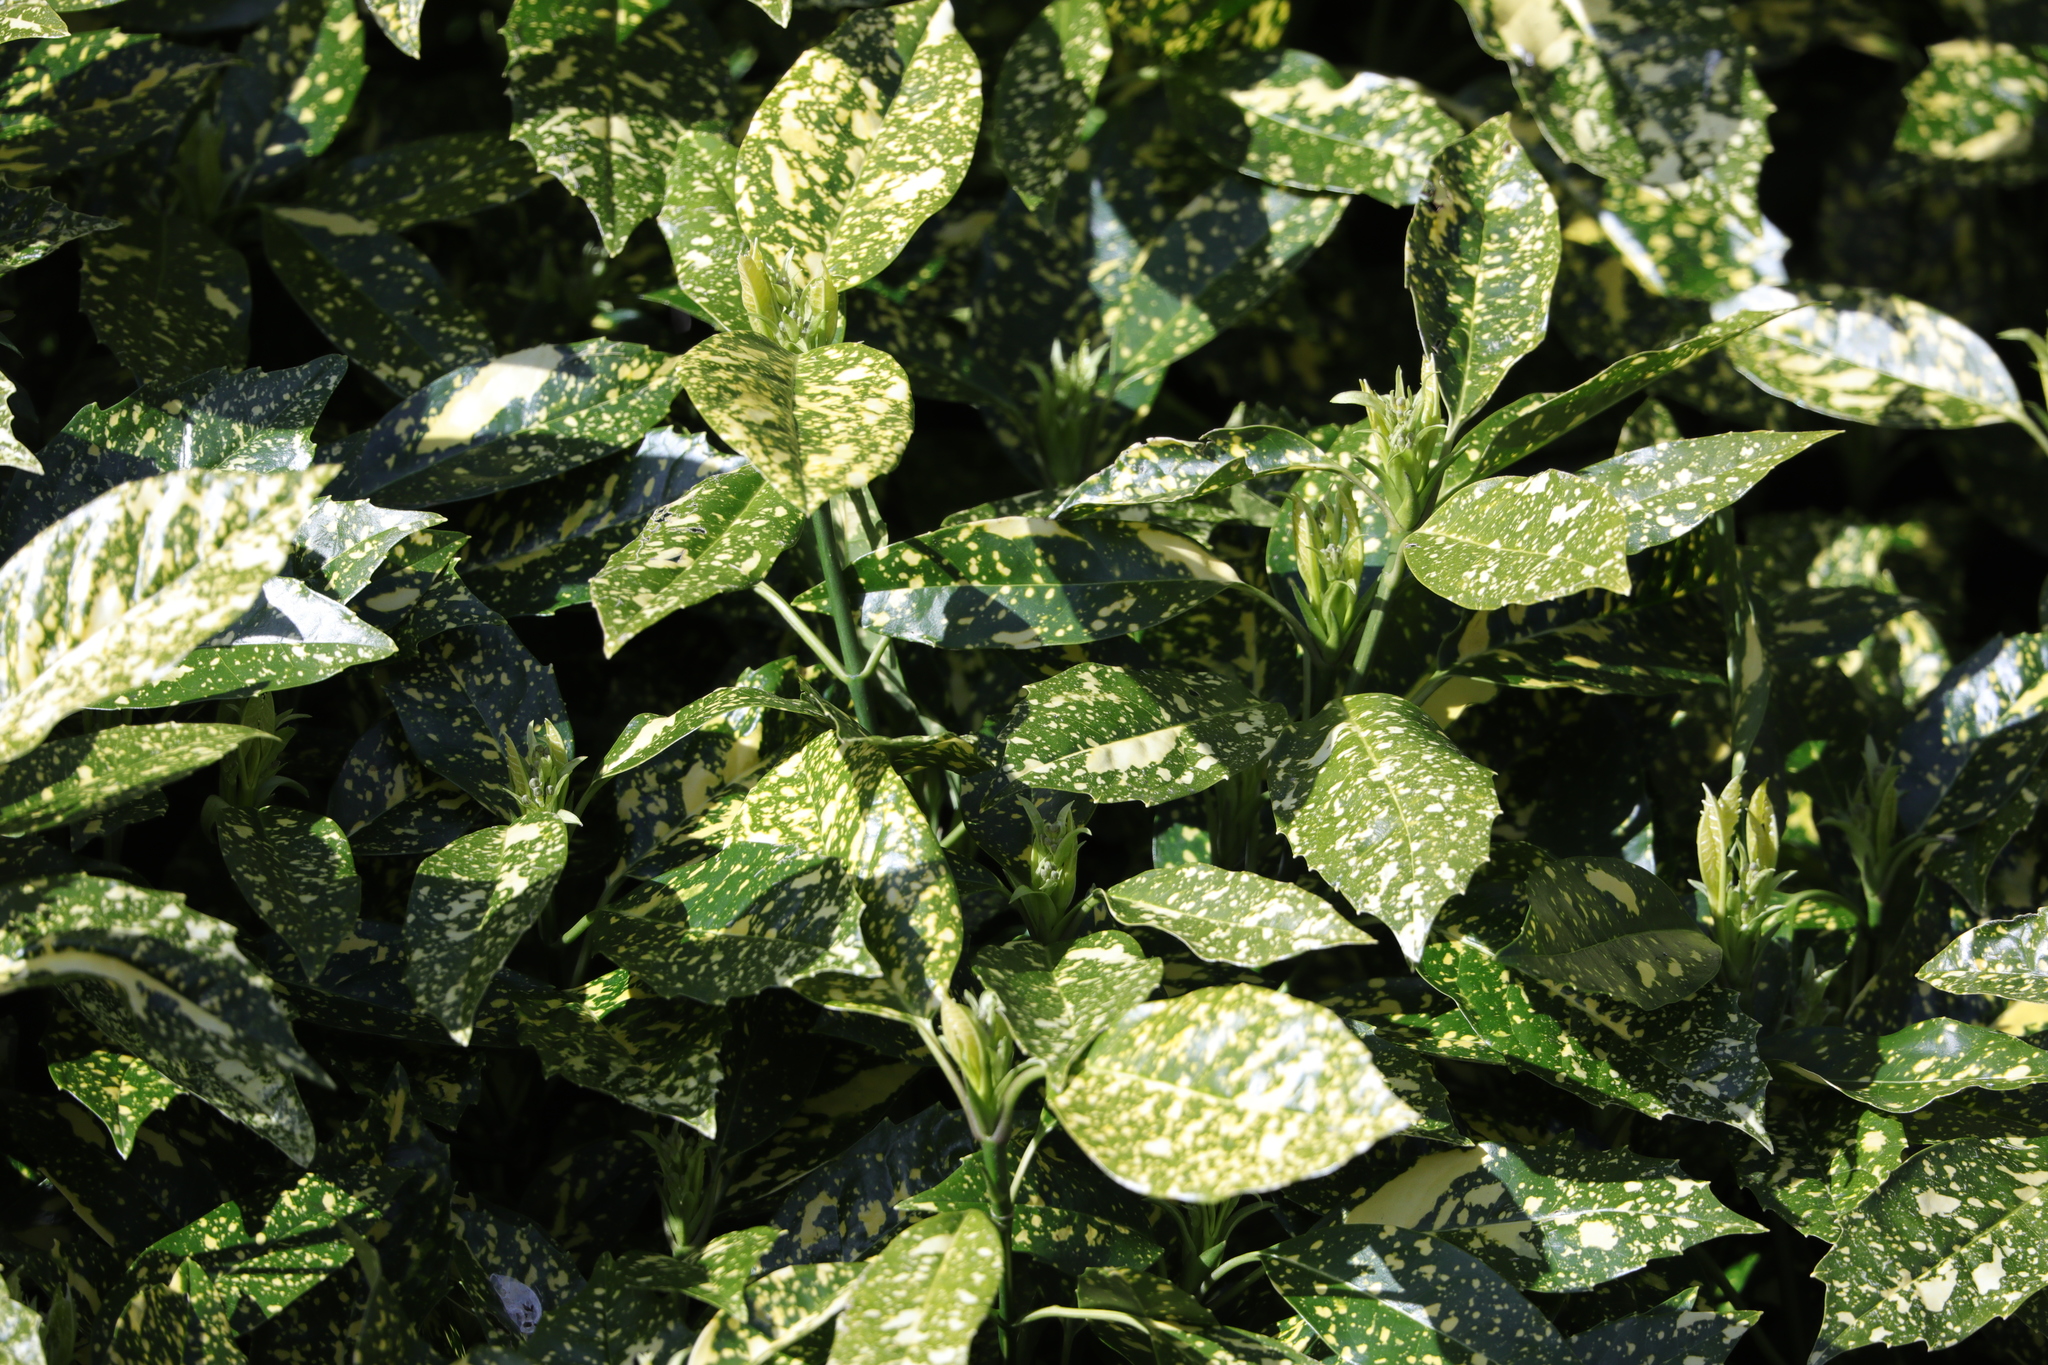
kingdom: Plantae
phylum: Tracheophyta
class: Magnoliopsida
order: Garryales
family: Garryaceae
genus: Aucuba
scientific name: Aucuba japonica
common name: Spotted-laurel
